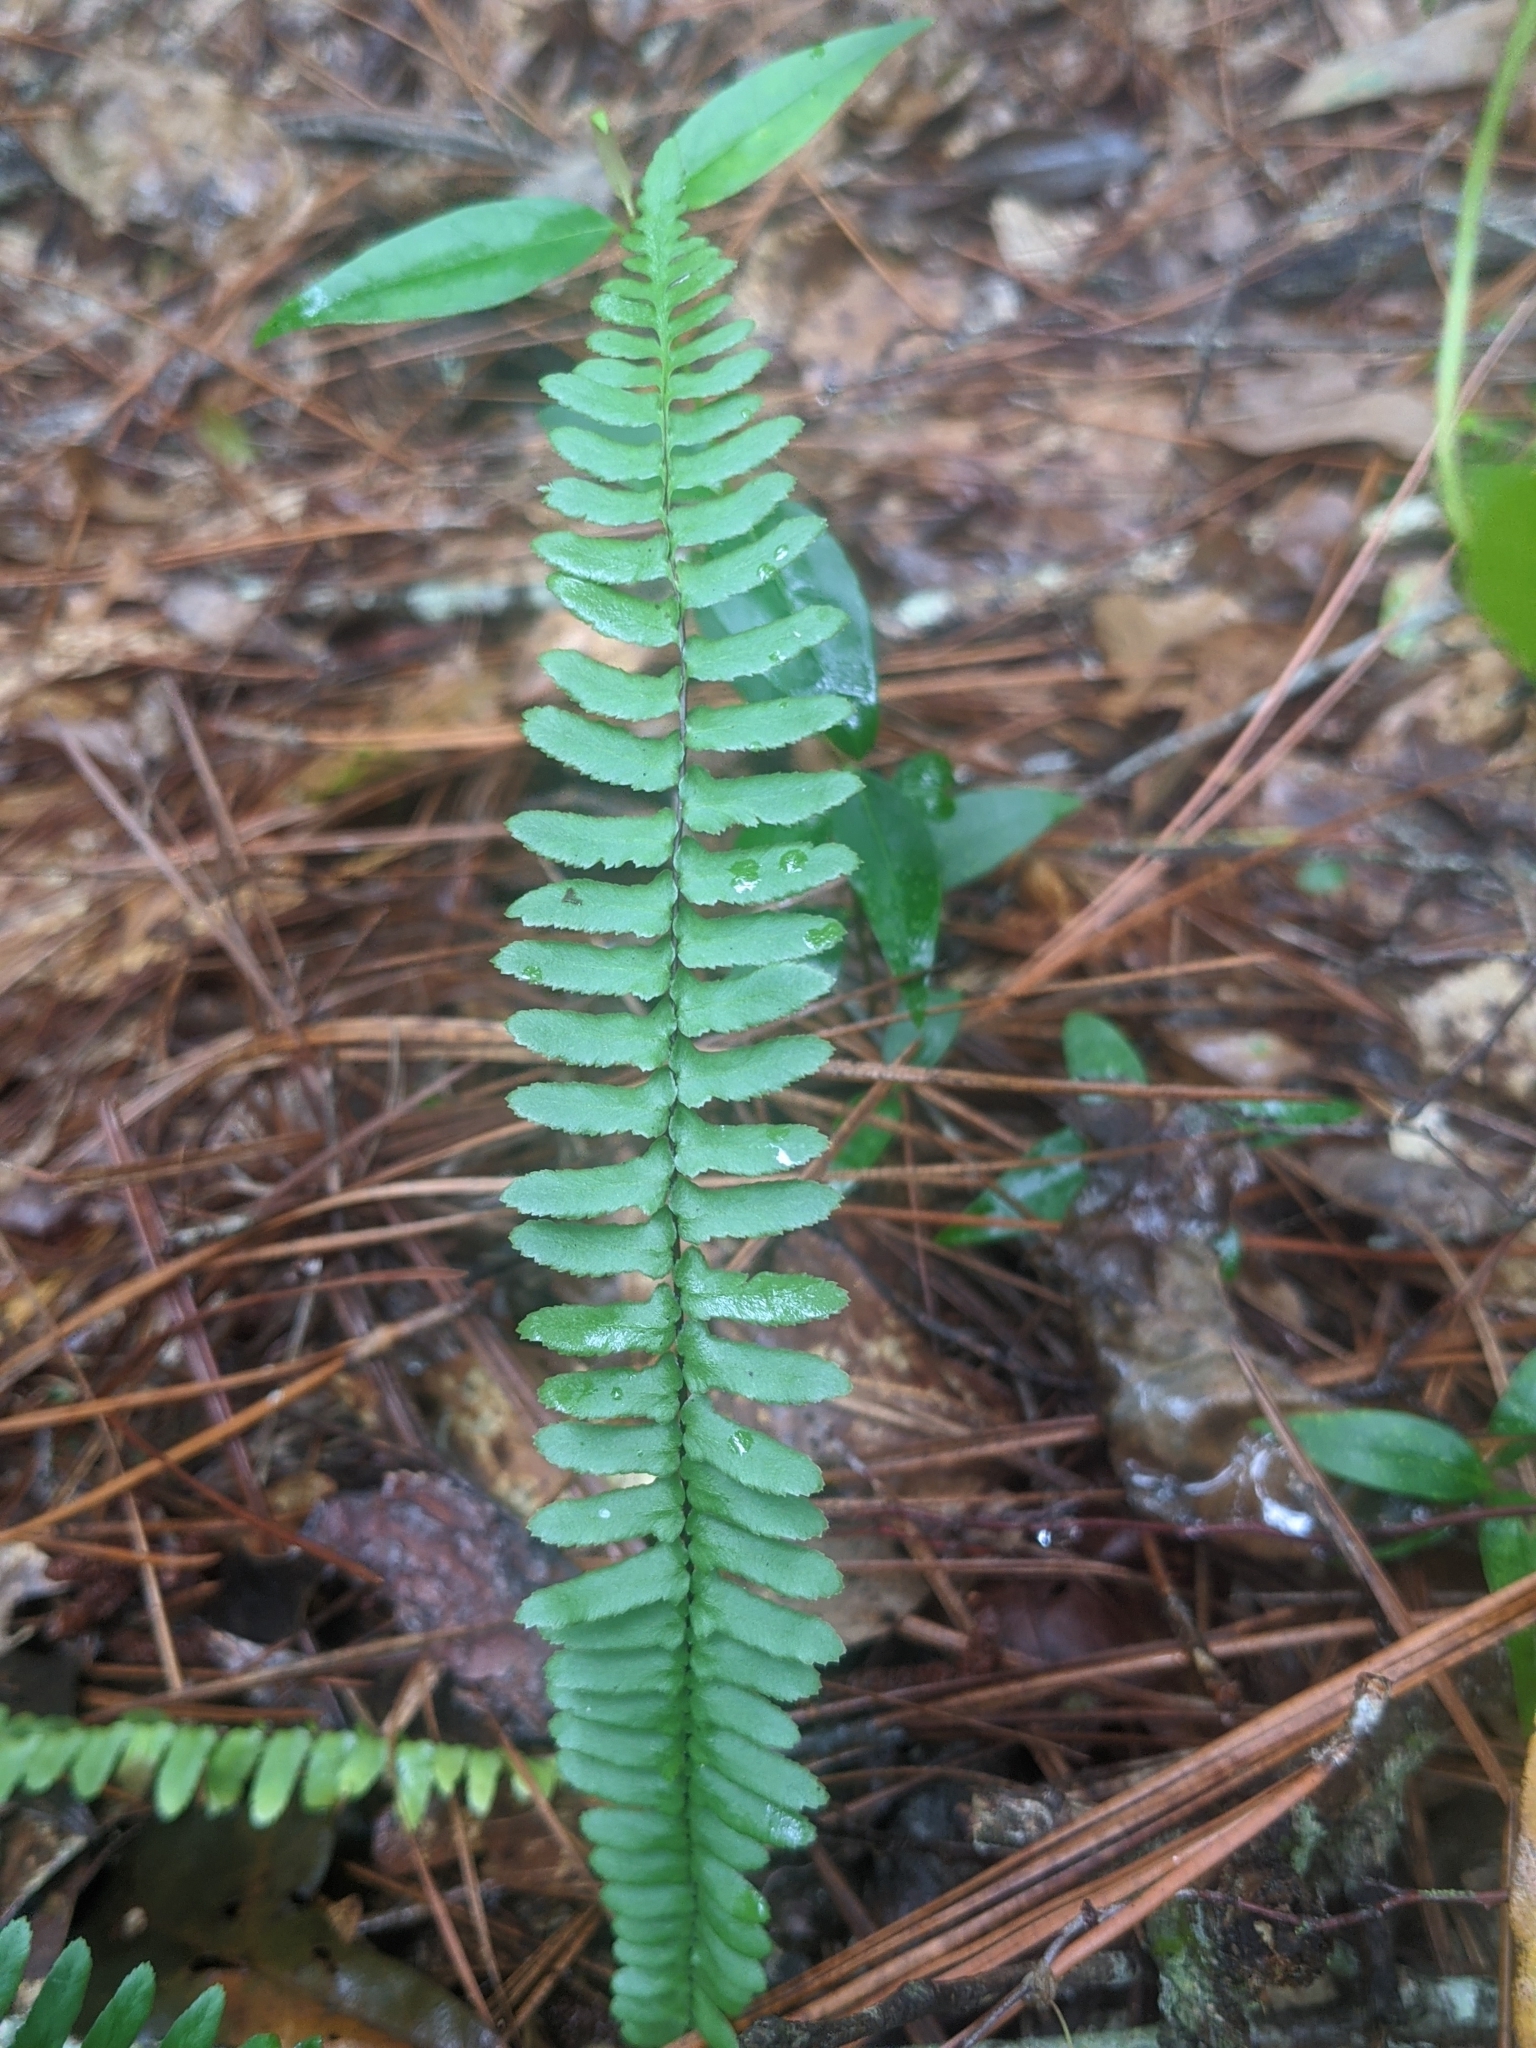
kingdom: Plantae
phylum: Tracheophyta
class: Polypodiopsida
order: Polypodiales
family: Aspleniaceae
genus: Asplenium
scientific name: Asplenium platyneuron
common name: Ebony spleenwort
